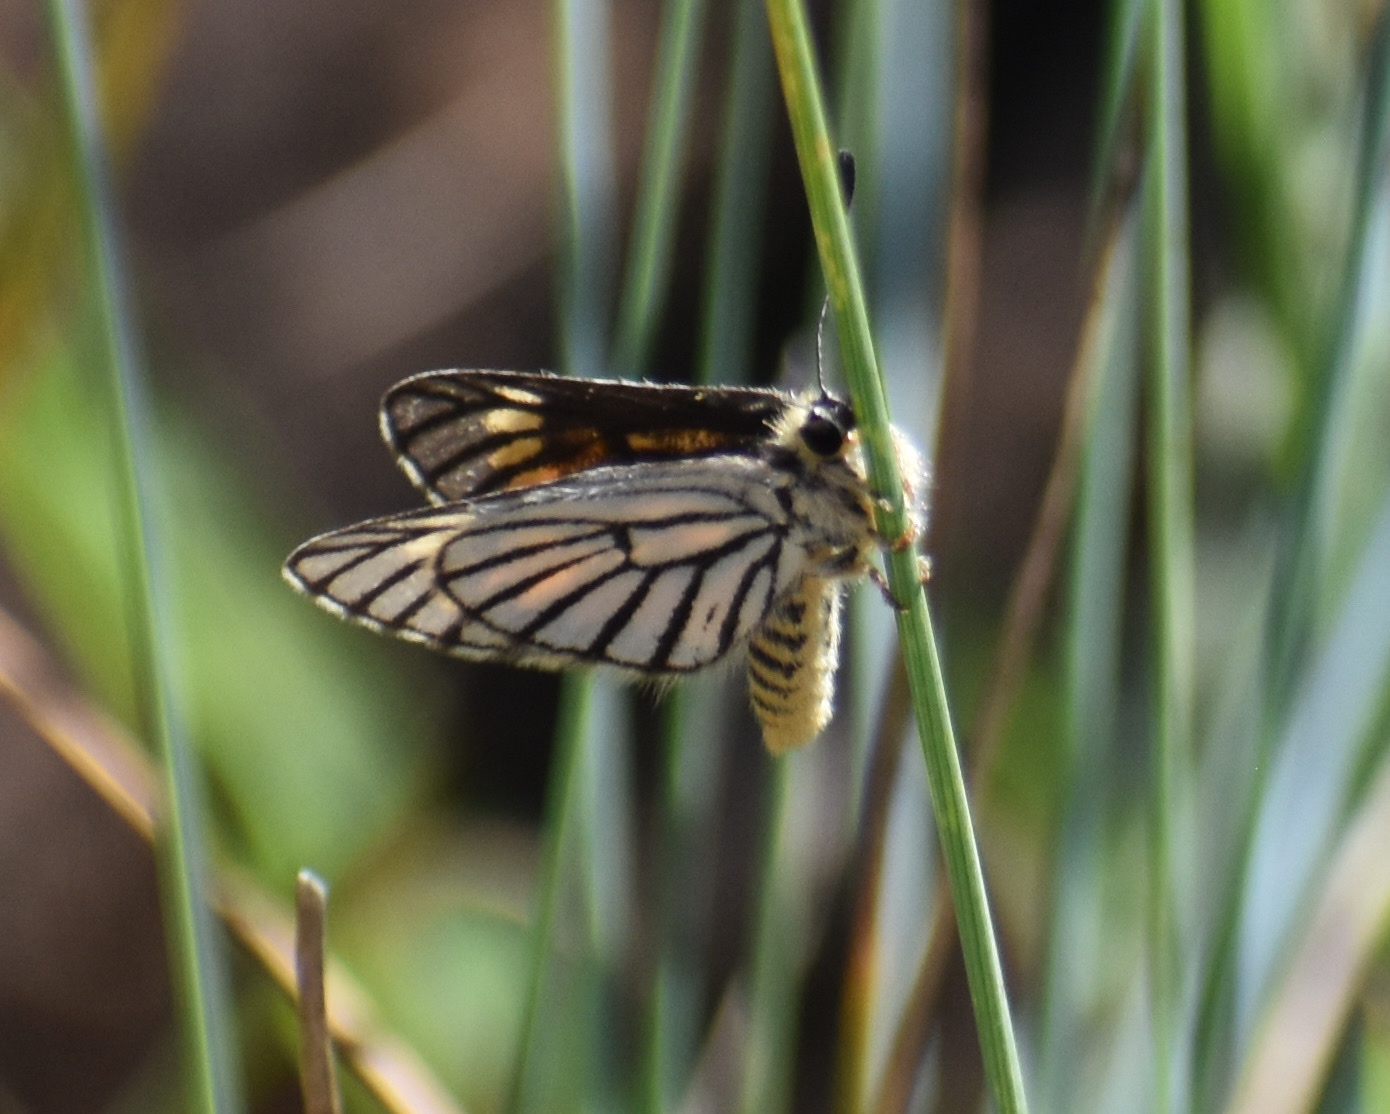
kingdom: Animalia
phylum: Arthropoda
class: Insecta
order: Lepidoptera
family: Lycaenidae
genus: Alaena
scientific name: Alaena amazoula
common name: Yellow zulu
